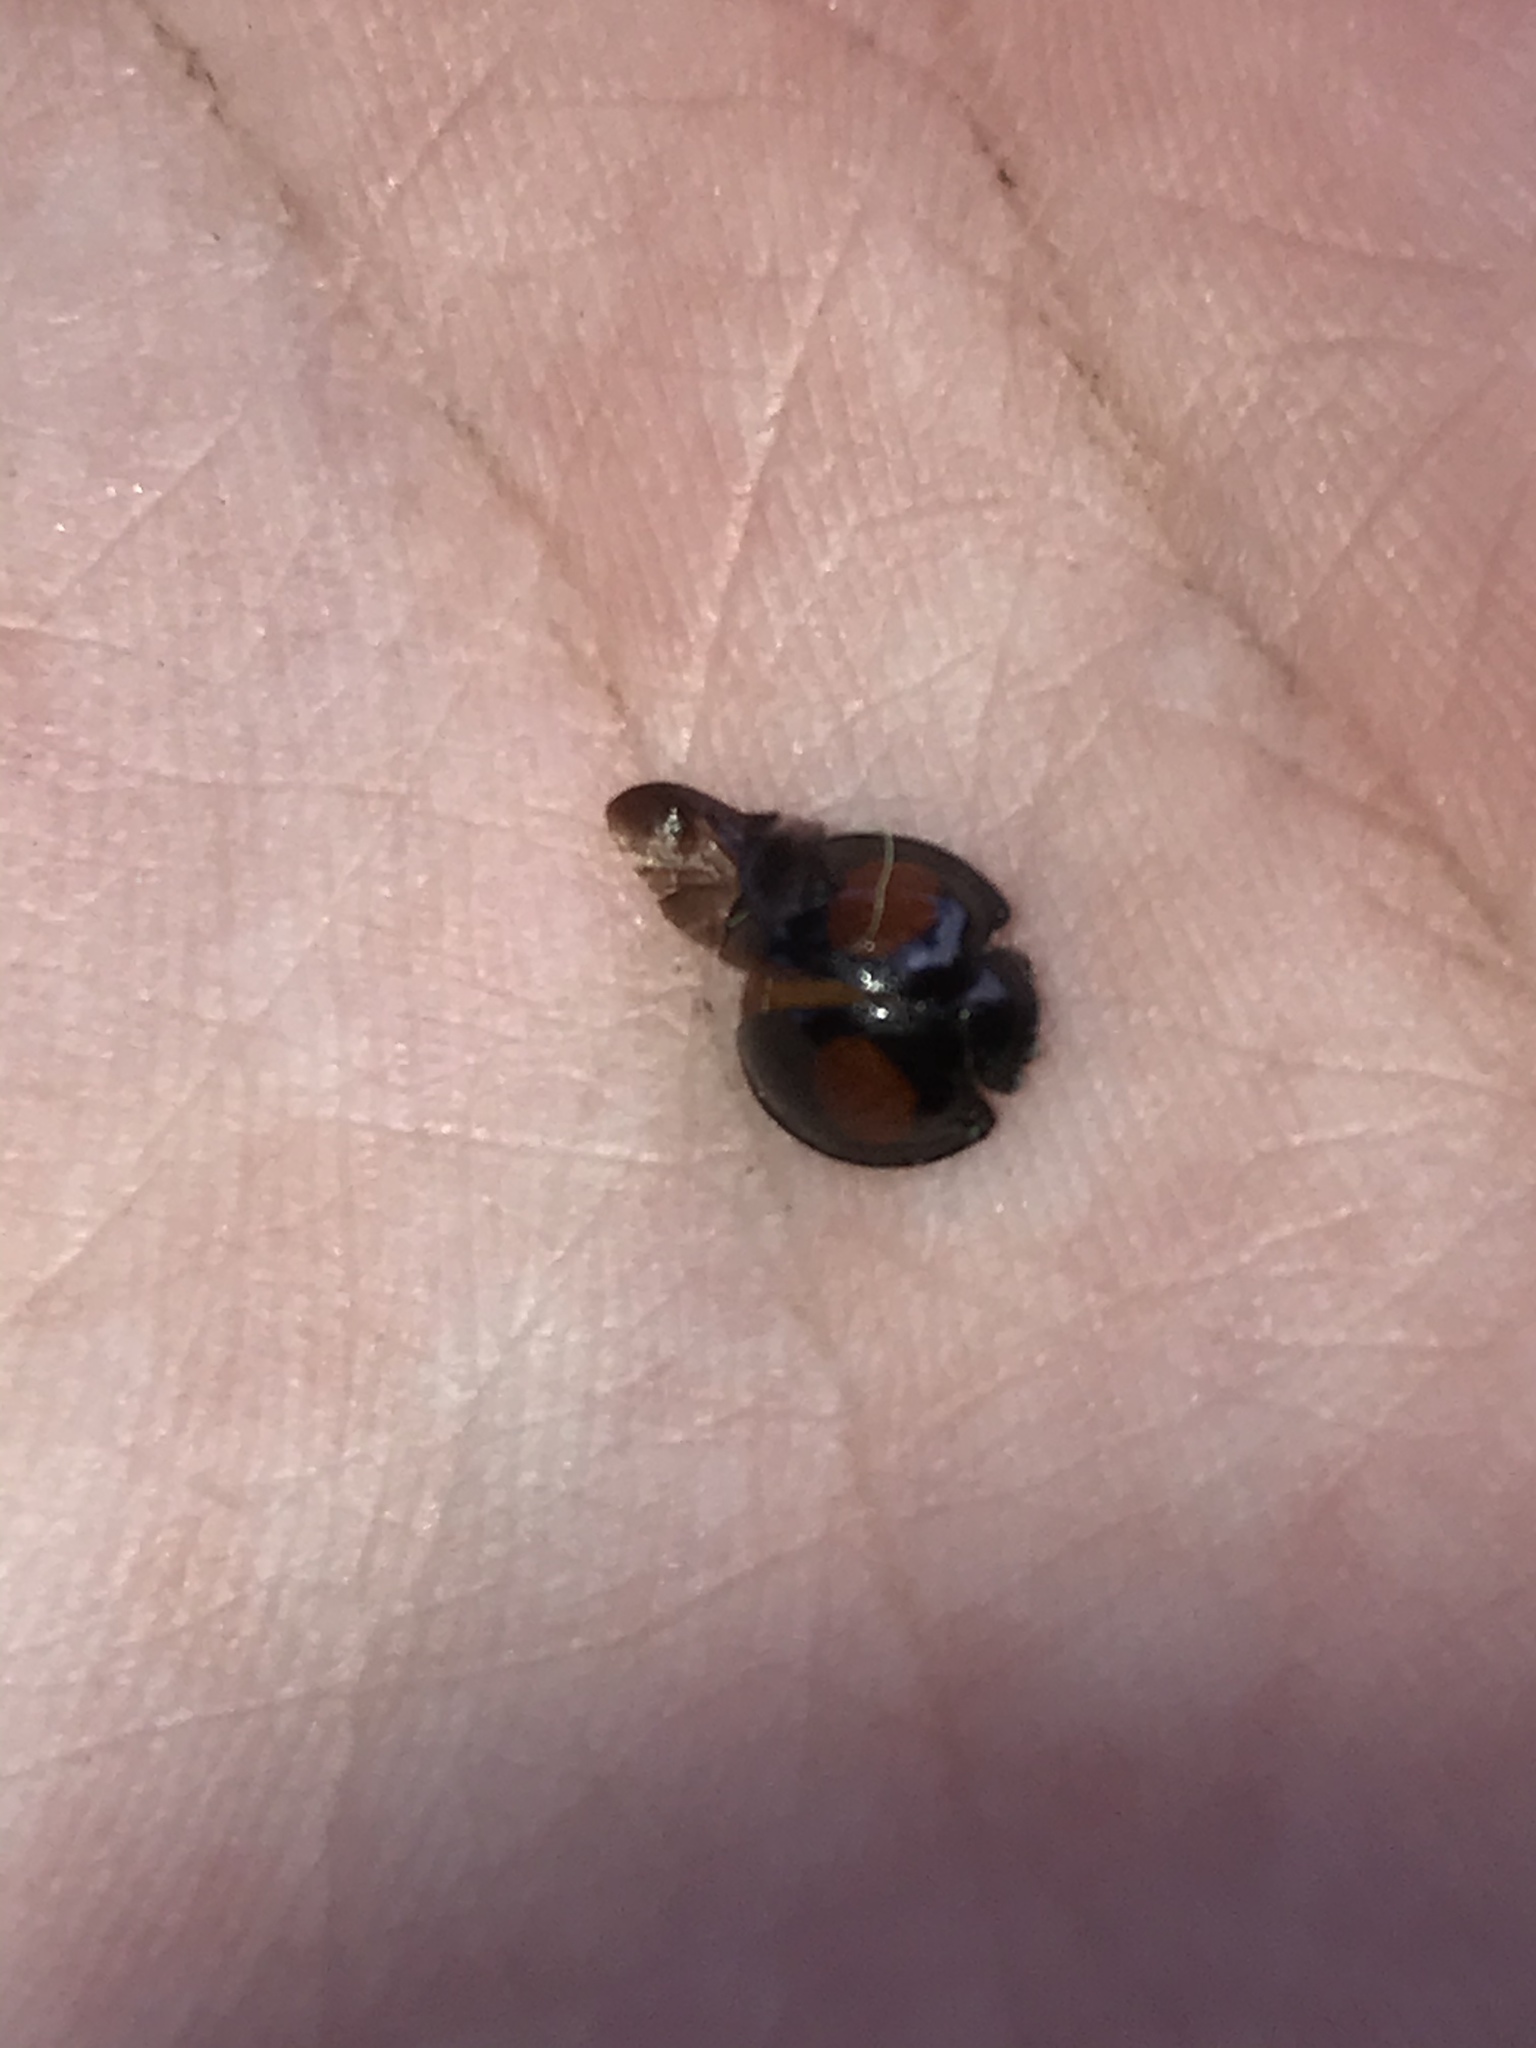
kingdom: Animalia
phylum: Arthropoda
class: Insecta
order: Coleoptera
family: Coccinellidae
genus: Chilocorus
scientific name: Chilocorus cacti
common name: Cactus lady beetle
